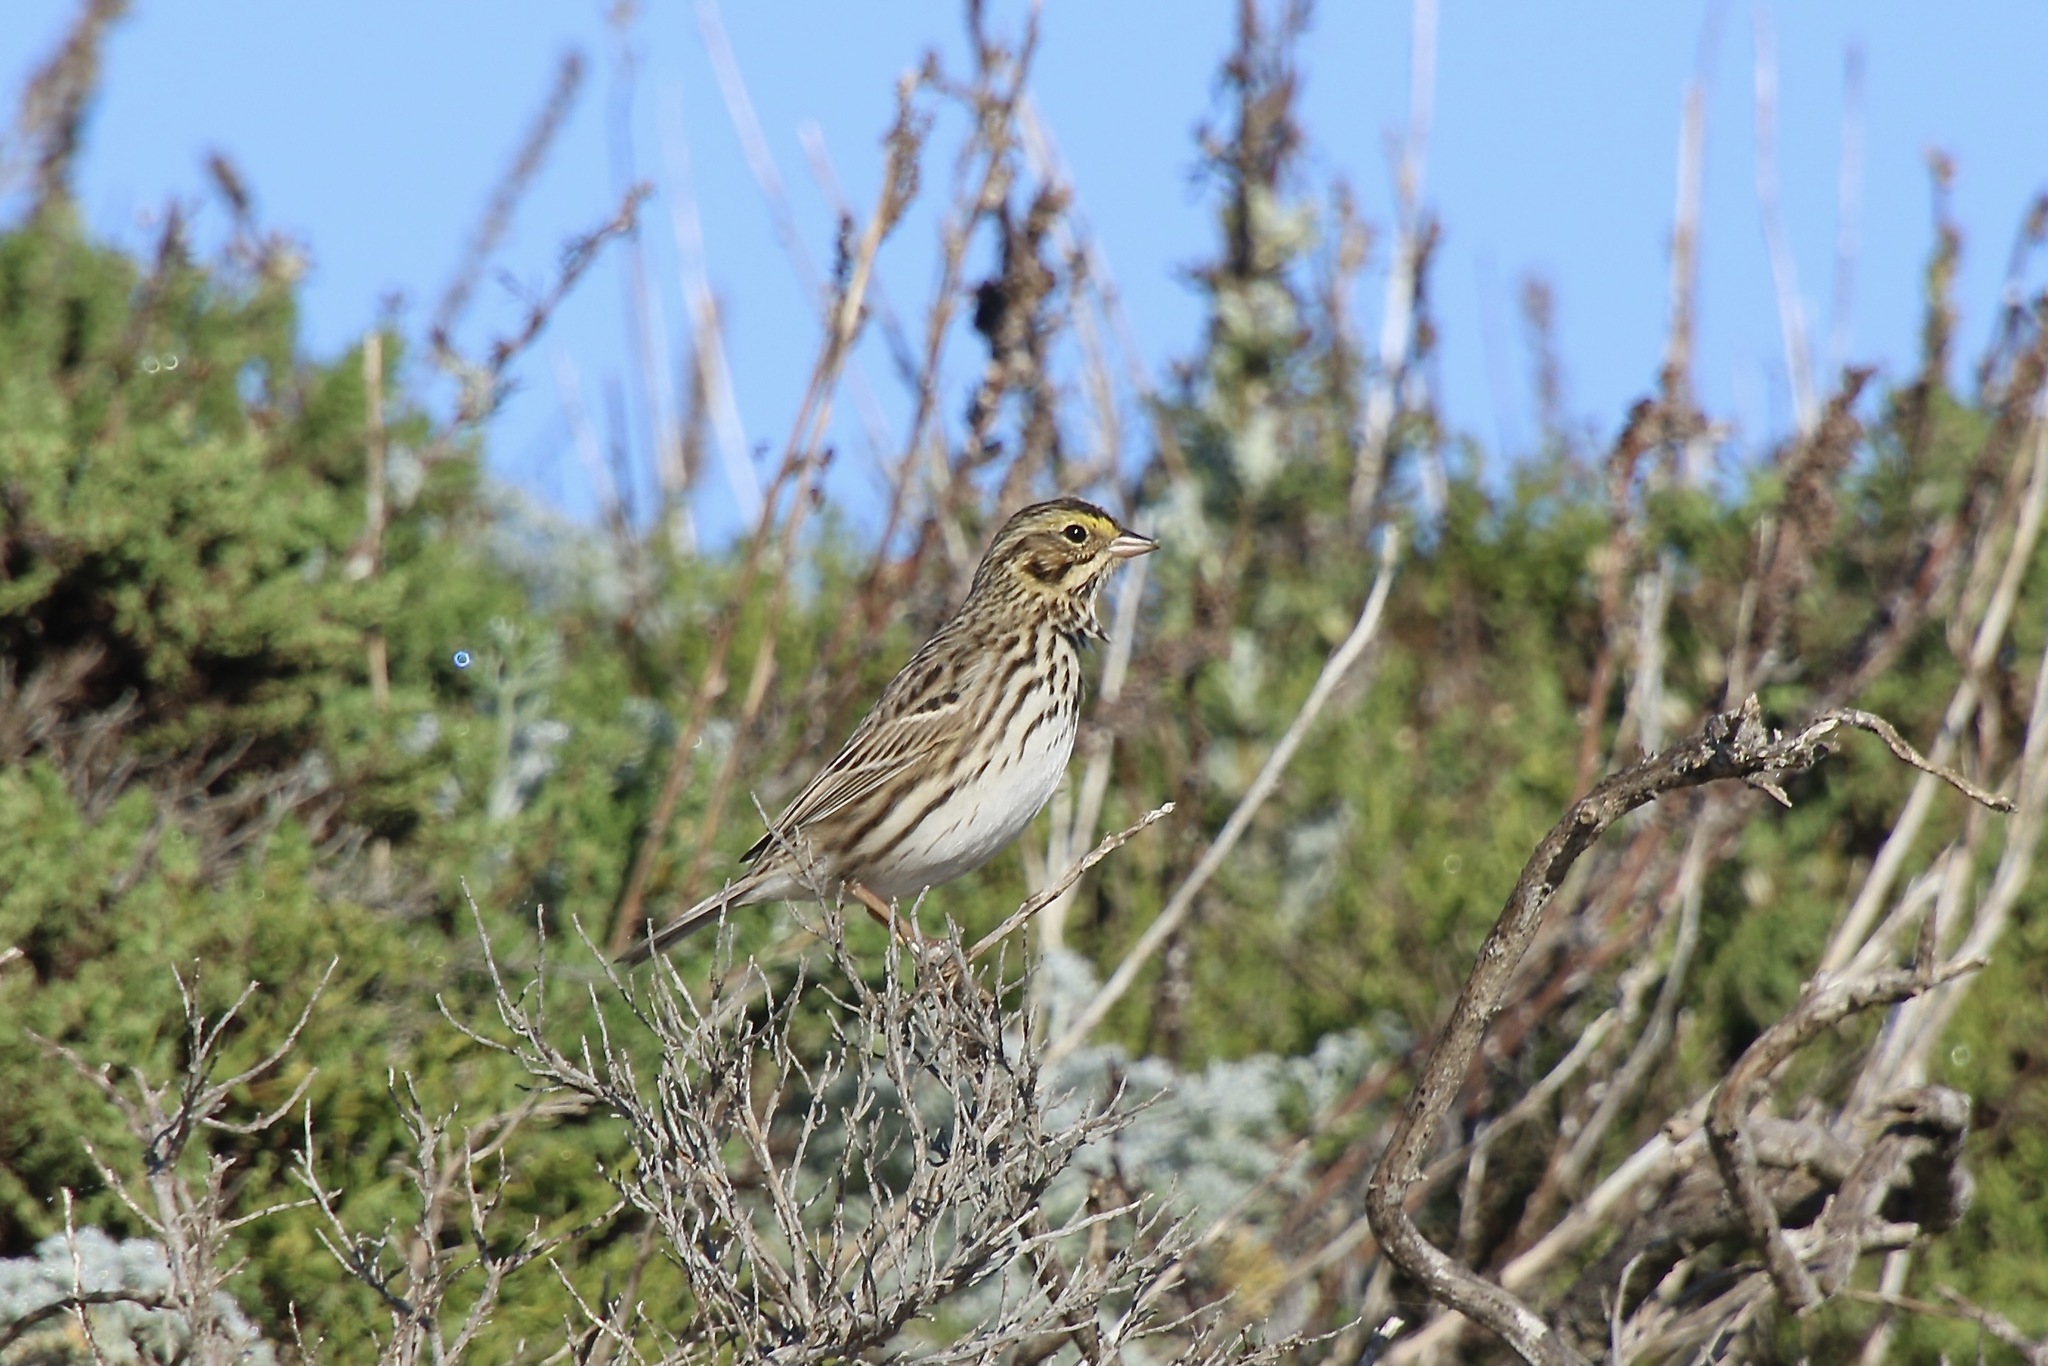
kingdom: Animalia
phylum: Chordata
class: Aves
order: Passeriformes
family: Passerellidae
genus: Passerculus
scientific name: Passerculus sandwichensis
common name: Savannah sparrow
